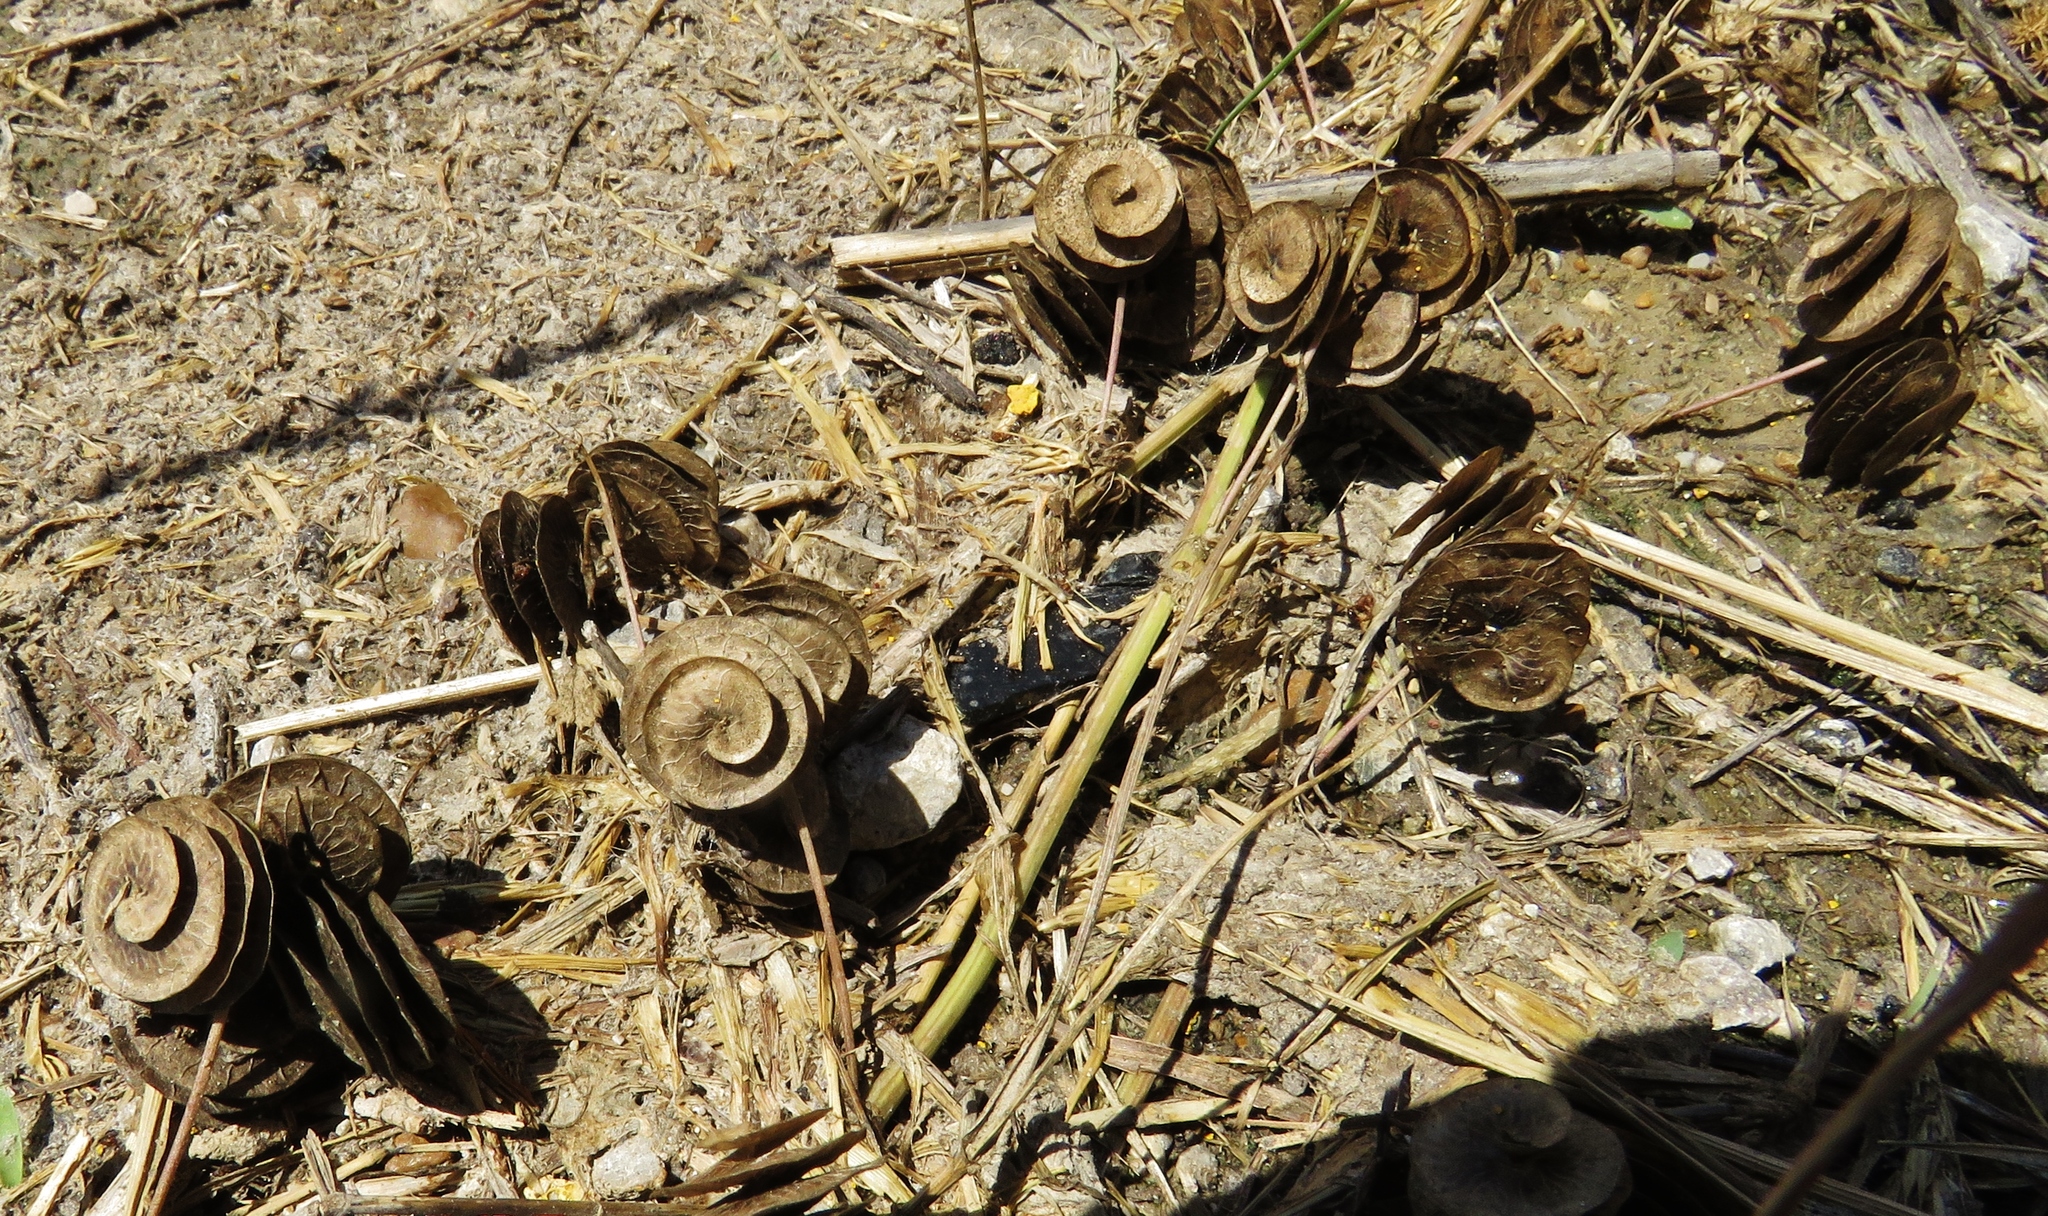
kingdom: Plantae
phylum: Tracheophyta
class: Magnoliopsida
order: Fabales
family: Fabaceae
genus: Medicago
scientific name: Medicago orbicularis
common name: Button medick
